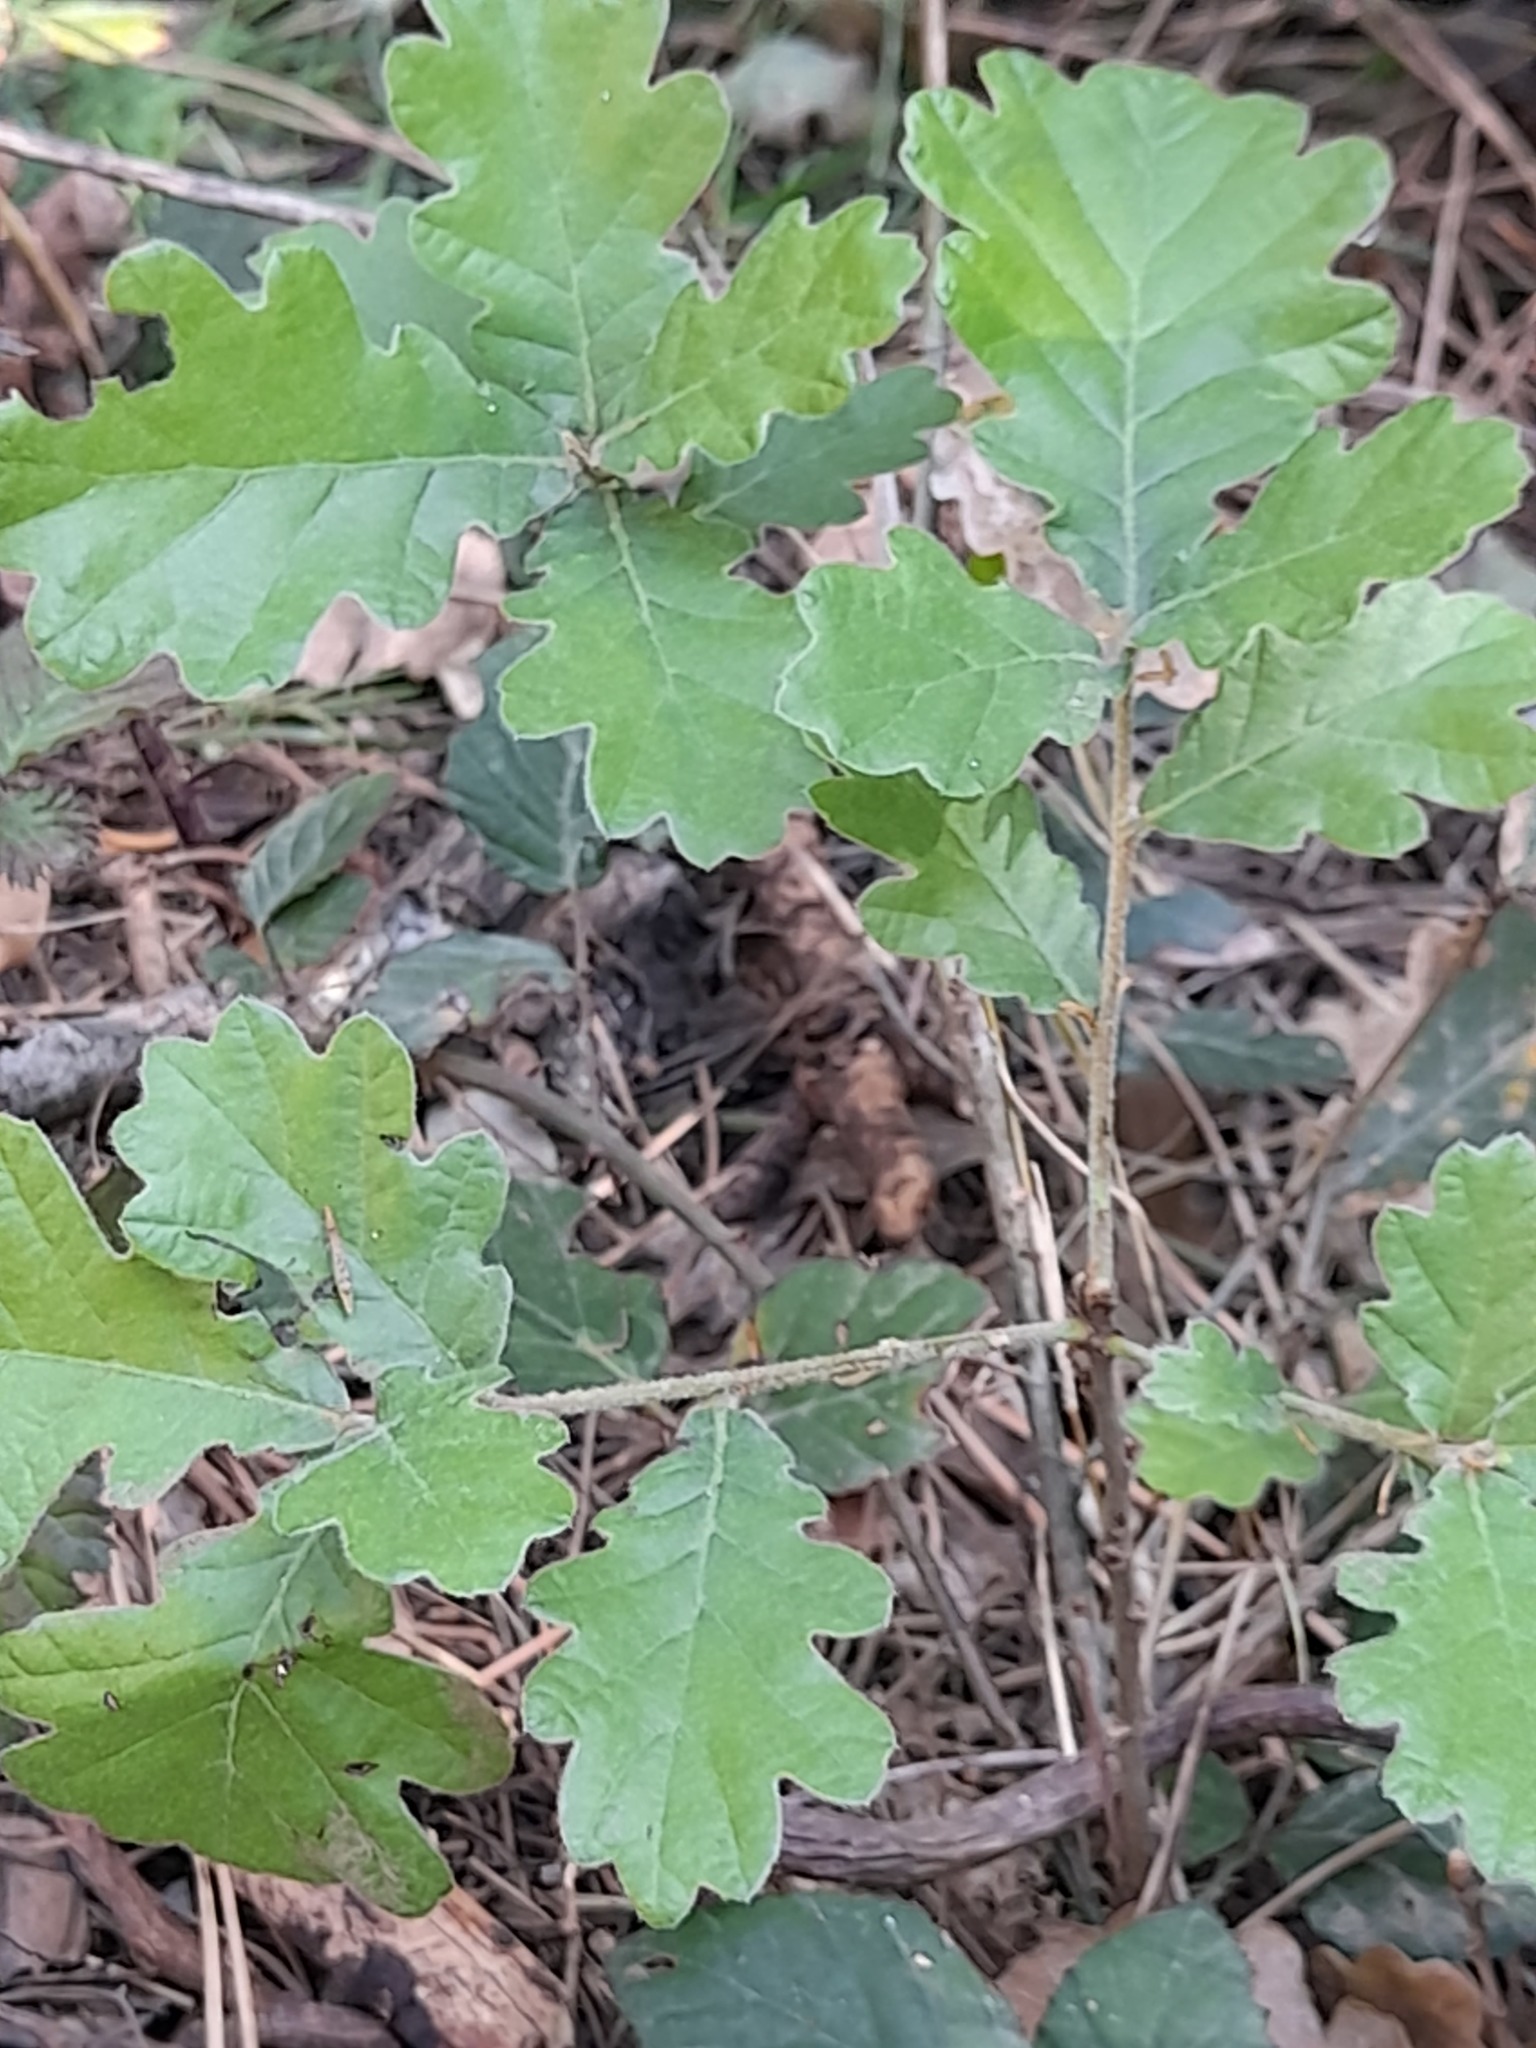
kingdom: Plantae
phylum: Tracheophyta
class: Magnoliopsida
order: Fagales
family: Fagaceae
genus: Quercus
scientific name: Quercus pubescens
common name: Downy oak
